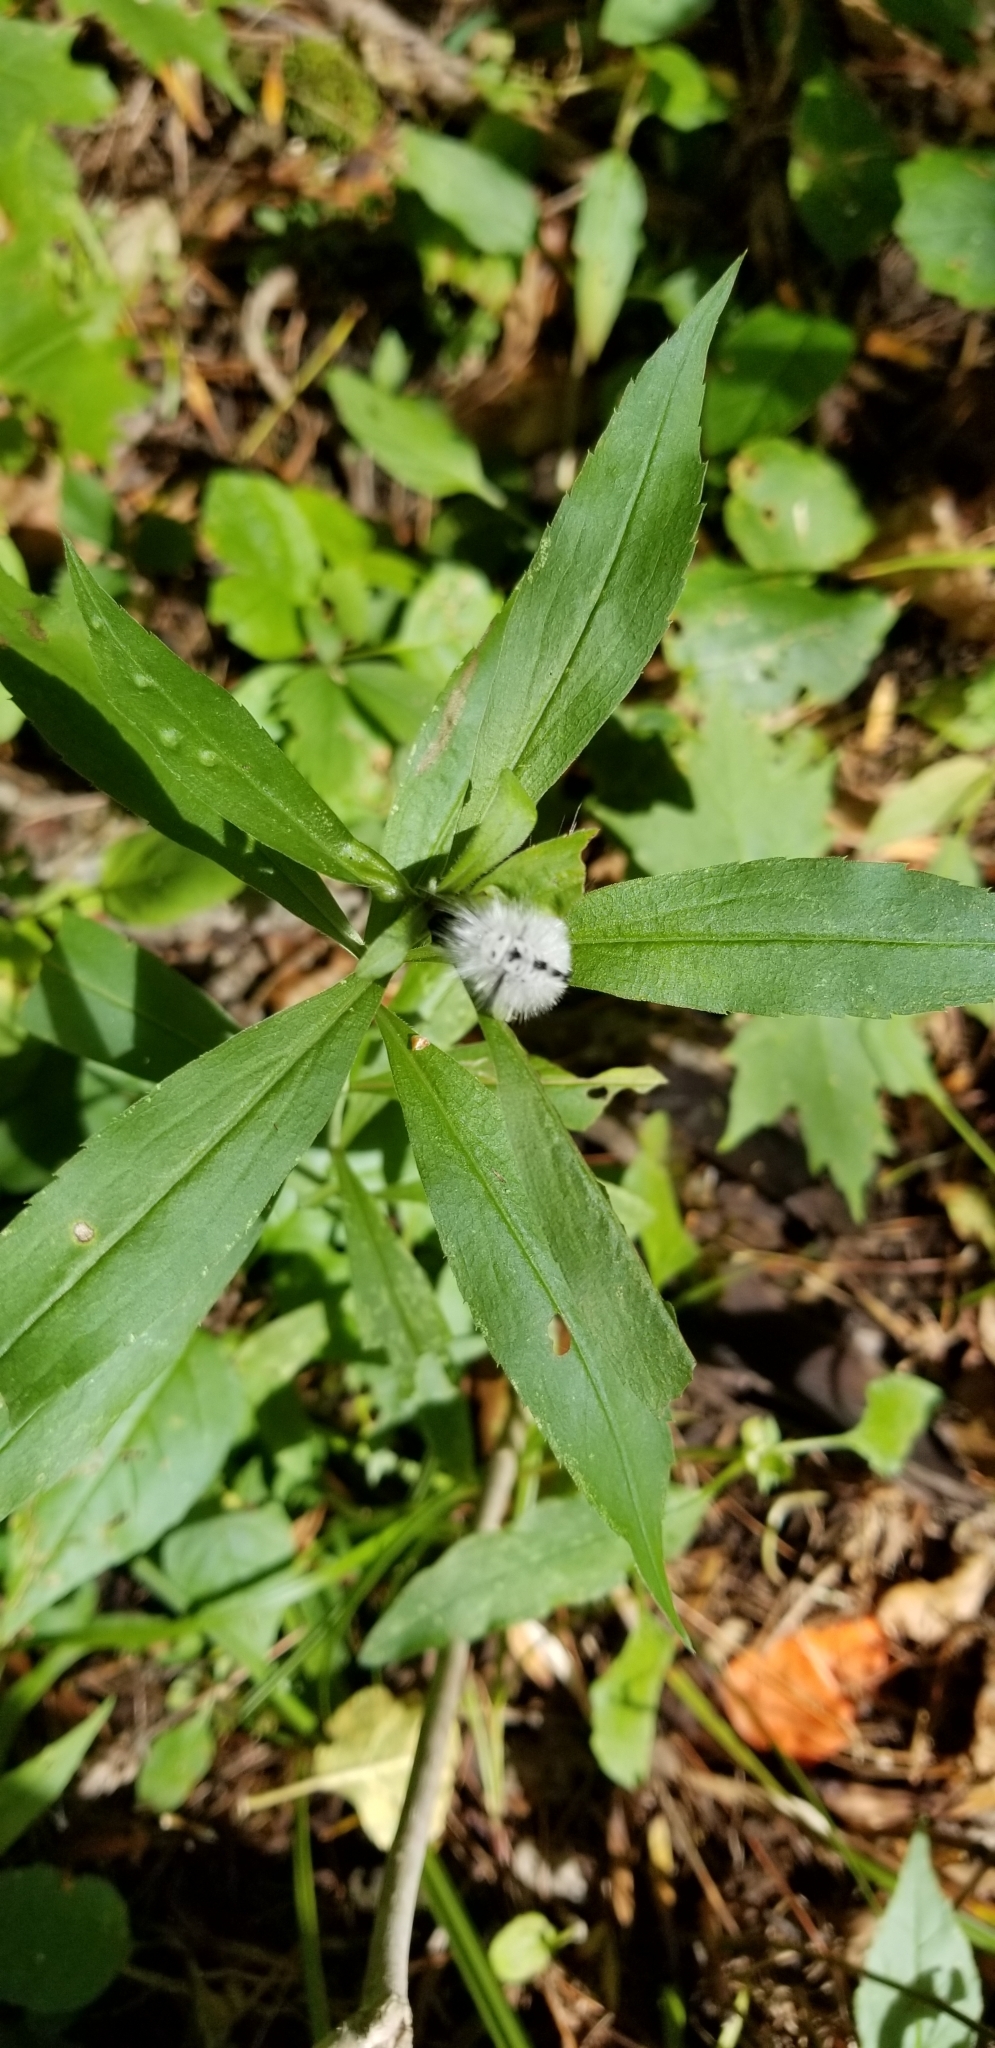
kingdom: Animalia
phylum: Arthropoda
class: Insecta
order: Lepidoptera
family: Erebidae
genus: Lophocampa
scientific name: Lophocampa caryae
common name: Hickory tussock moth
